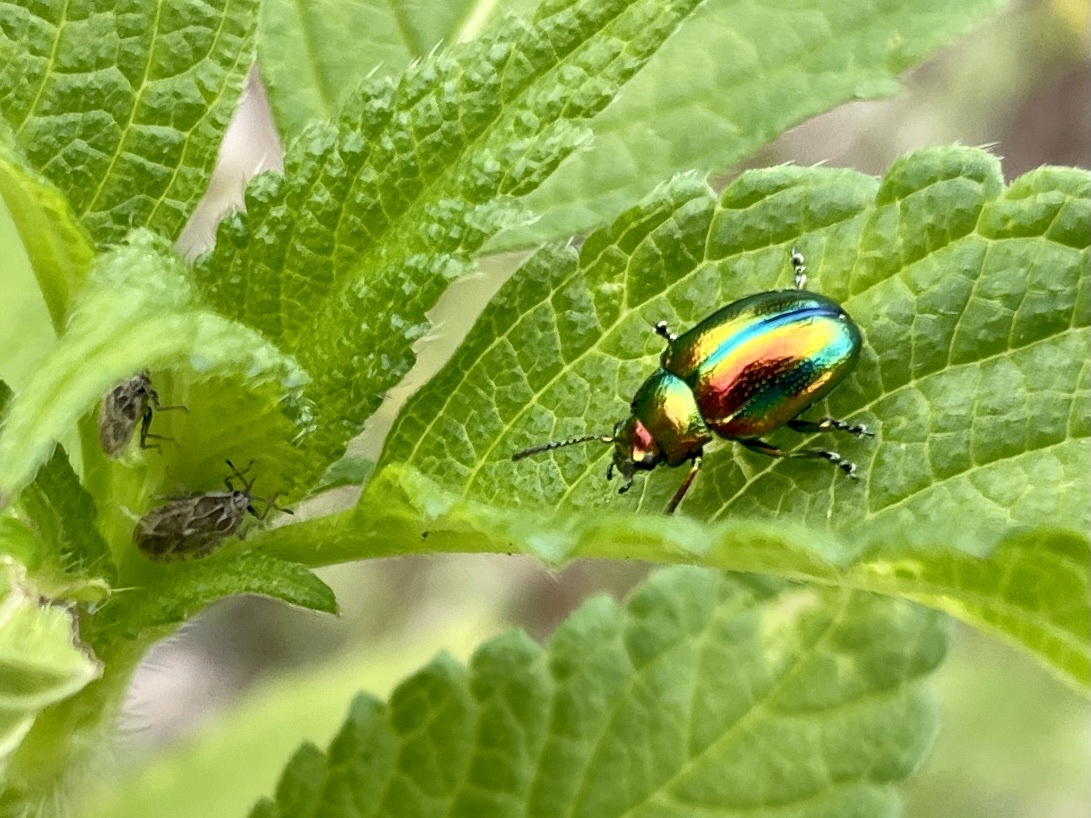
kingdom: Animalia
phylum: Arthropoda
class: Insecta
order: Coleoptera
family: Chrysomelidae
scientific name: Chrysomelidae
